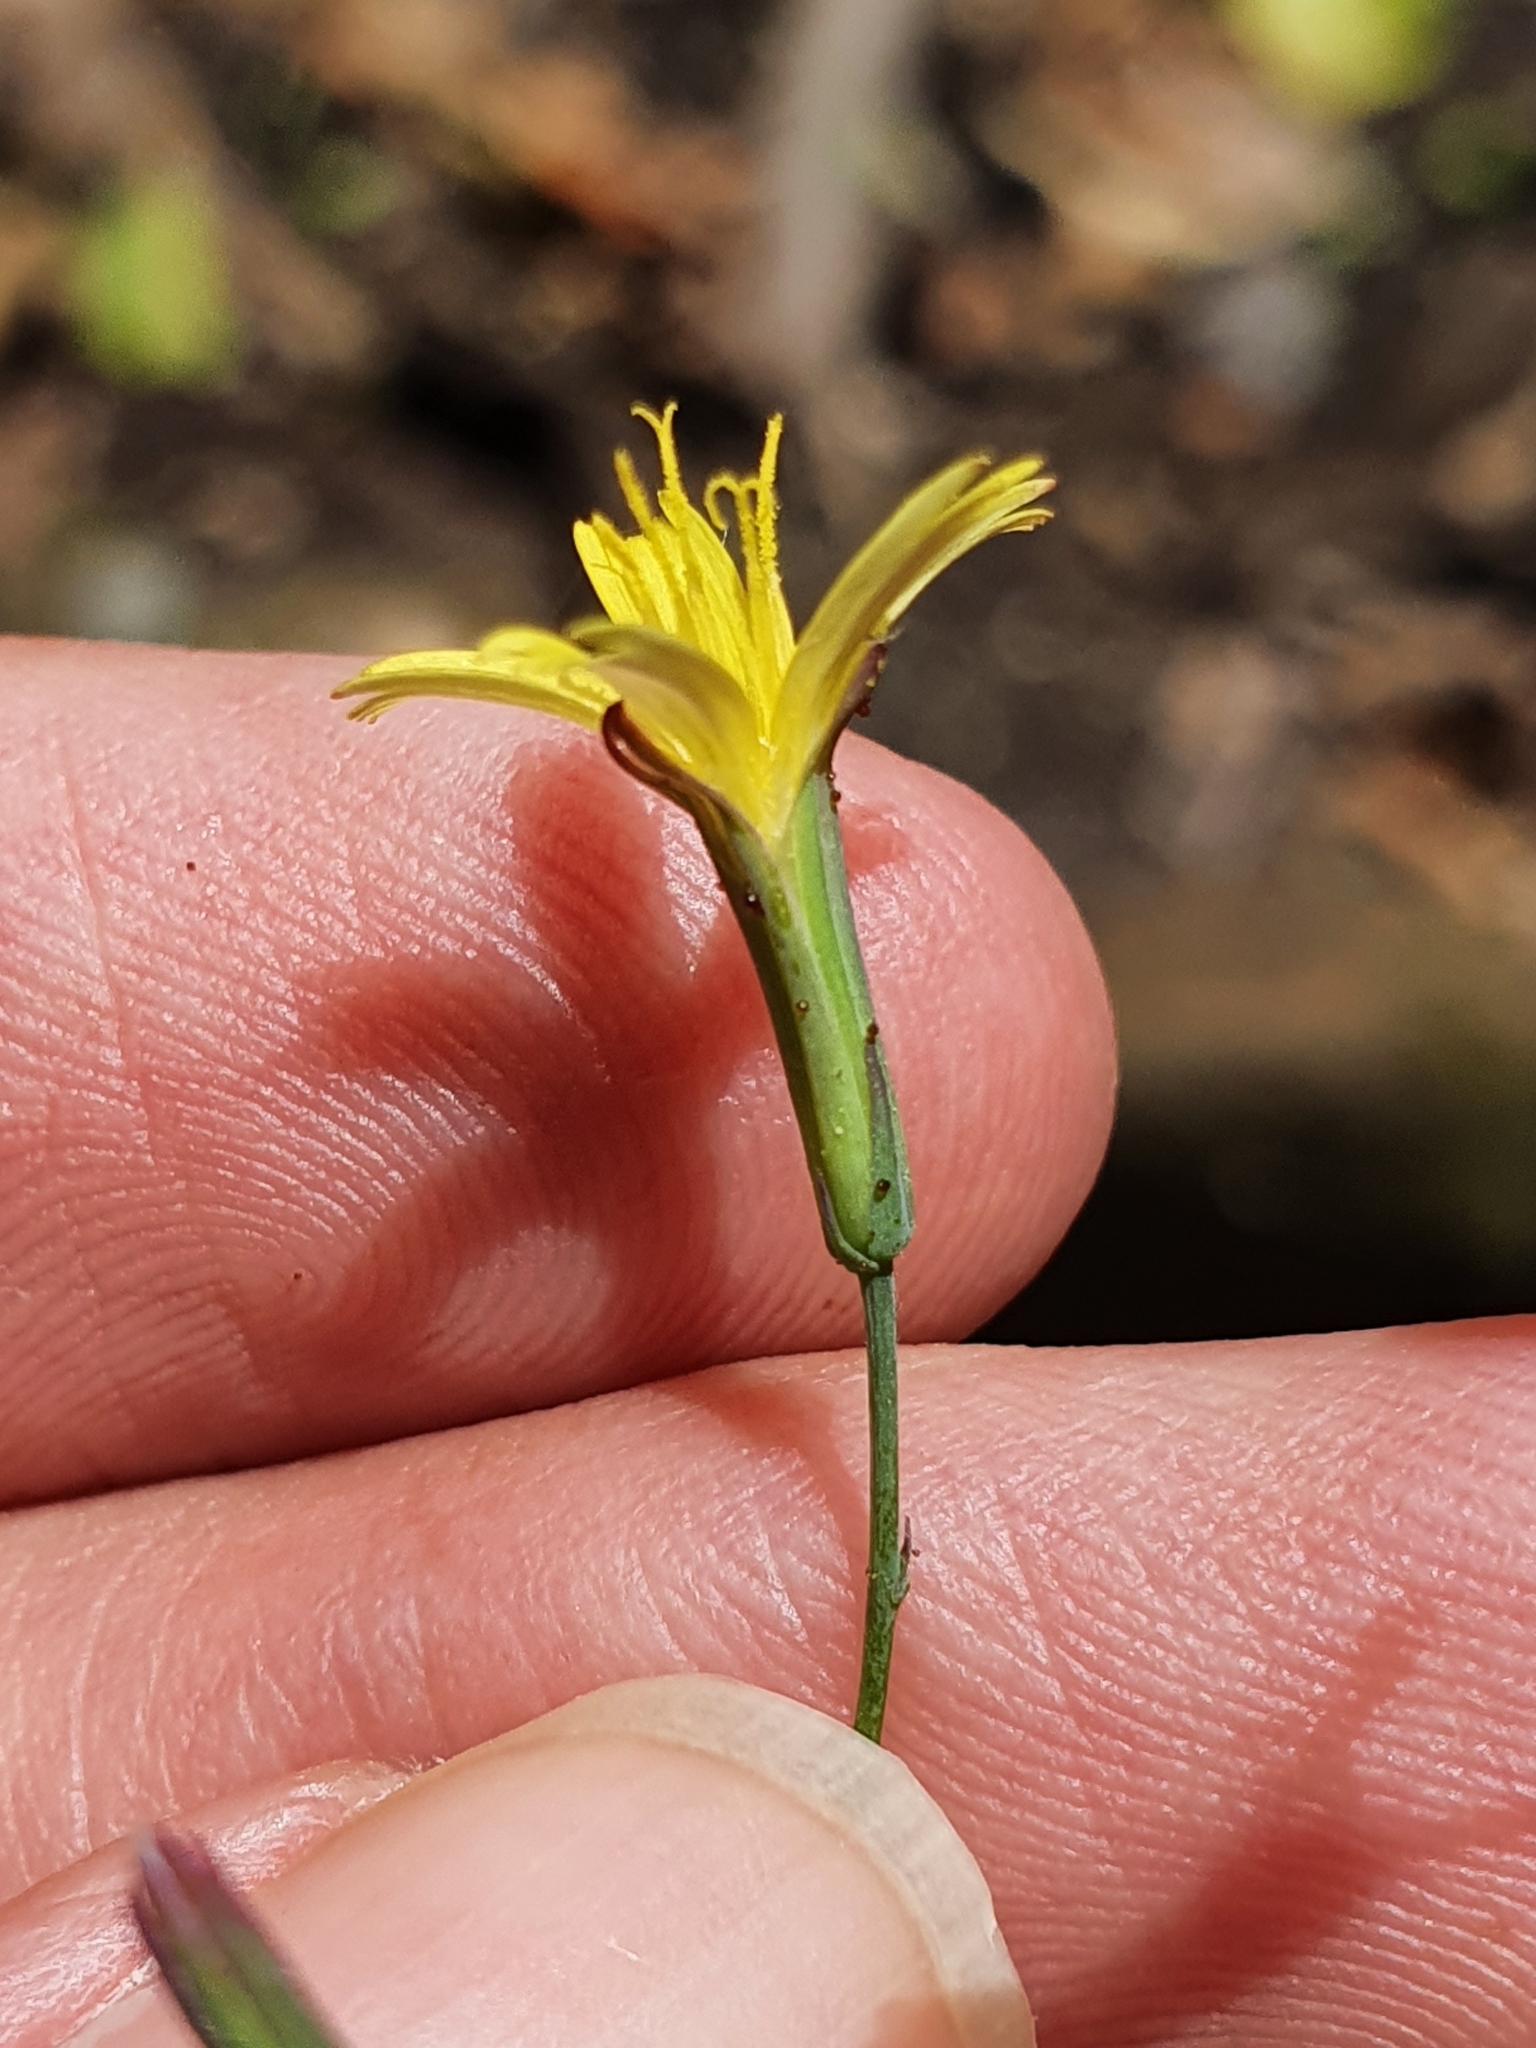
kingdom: Plantae
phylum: Tracheophyta
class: Magnoliopsida
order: Asterales
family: Asteraceae
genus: Mycelis
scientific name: Mycelis muralis
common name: Wall lettuce
